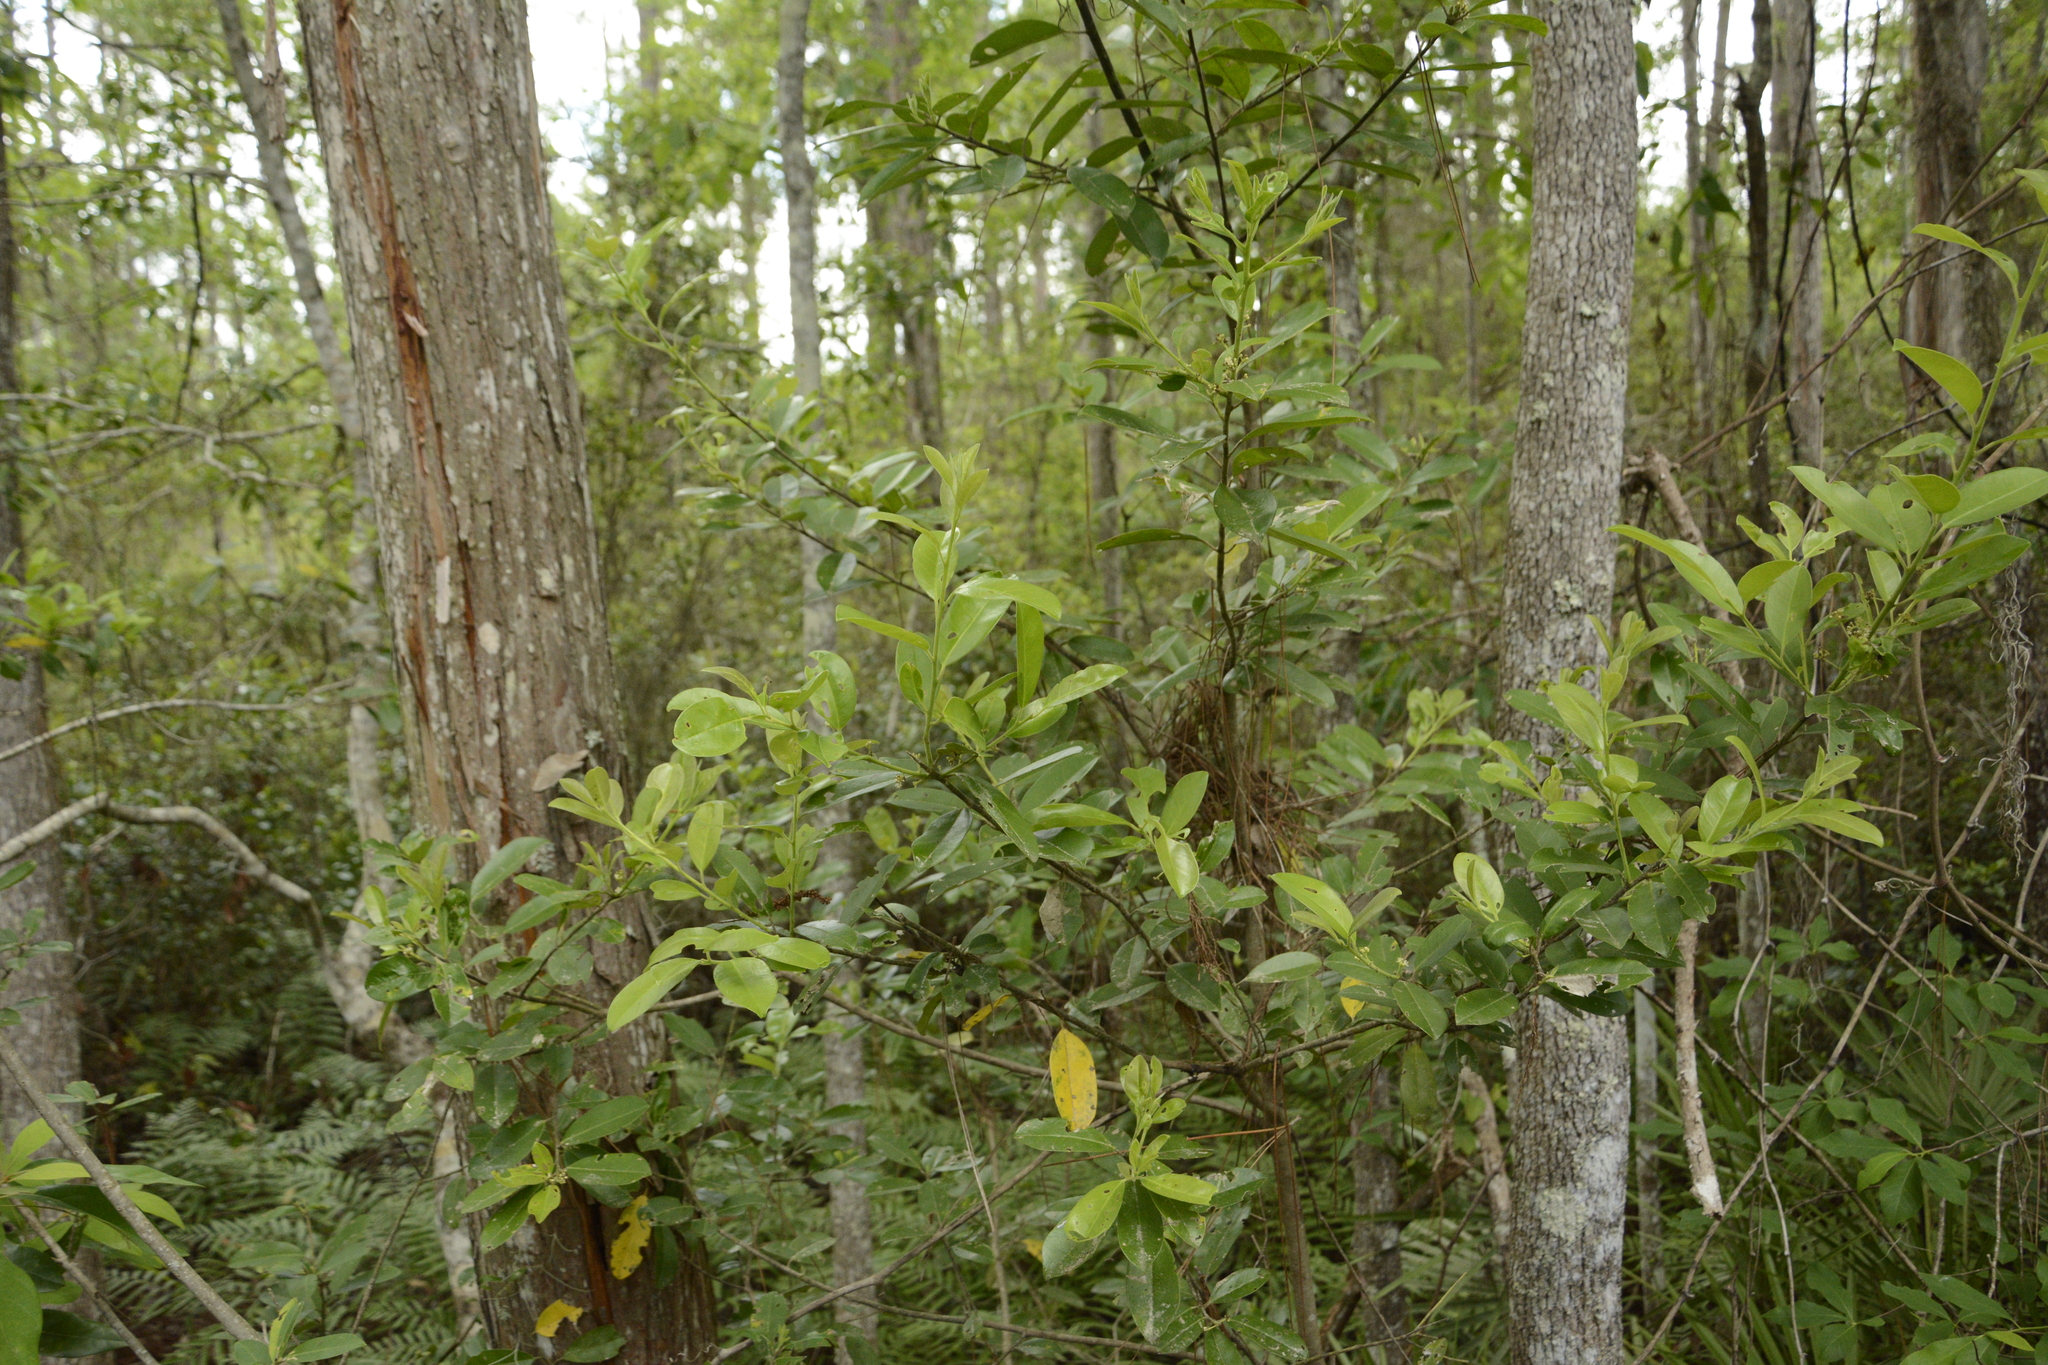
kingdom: Plantae
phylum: Tracheophyta
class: Magnoliopsida
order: Aquifoliales
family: Aquifoliaceae
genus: Ilex
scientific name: Ilex cassine
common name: Dahoon
